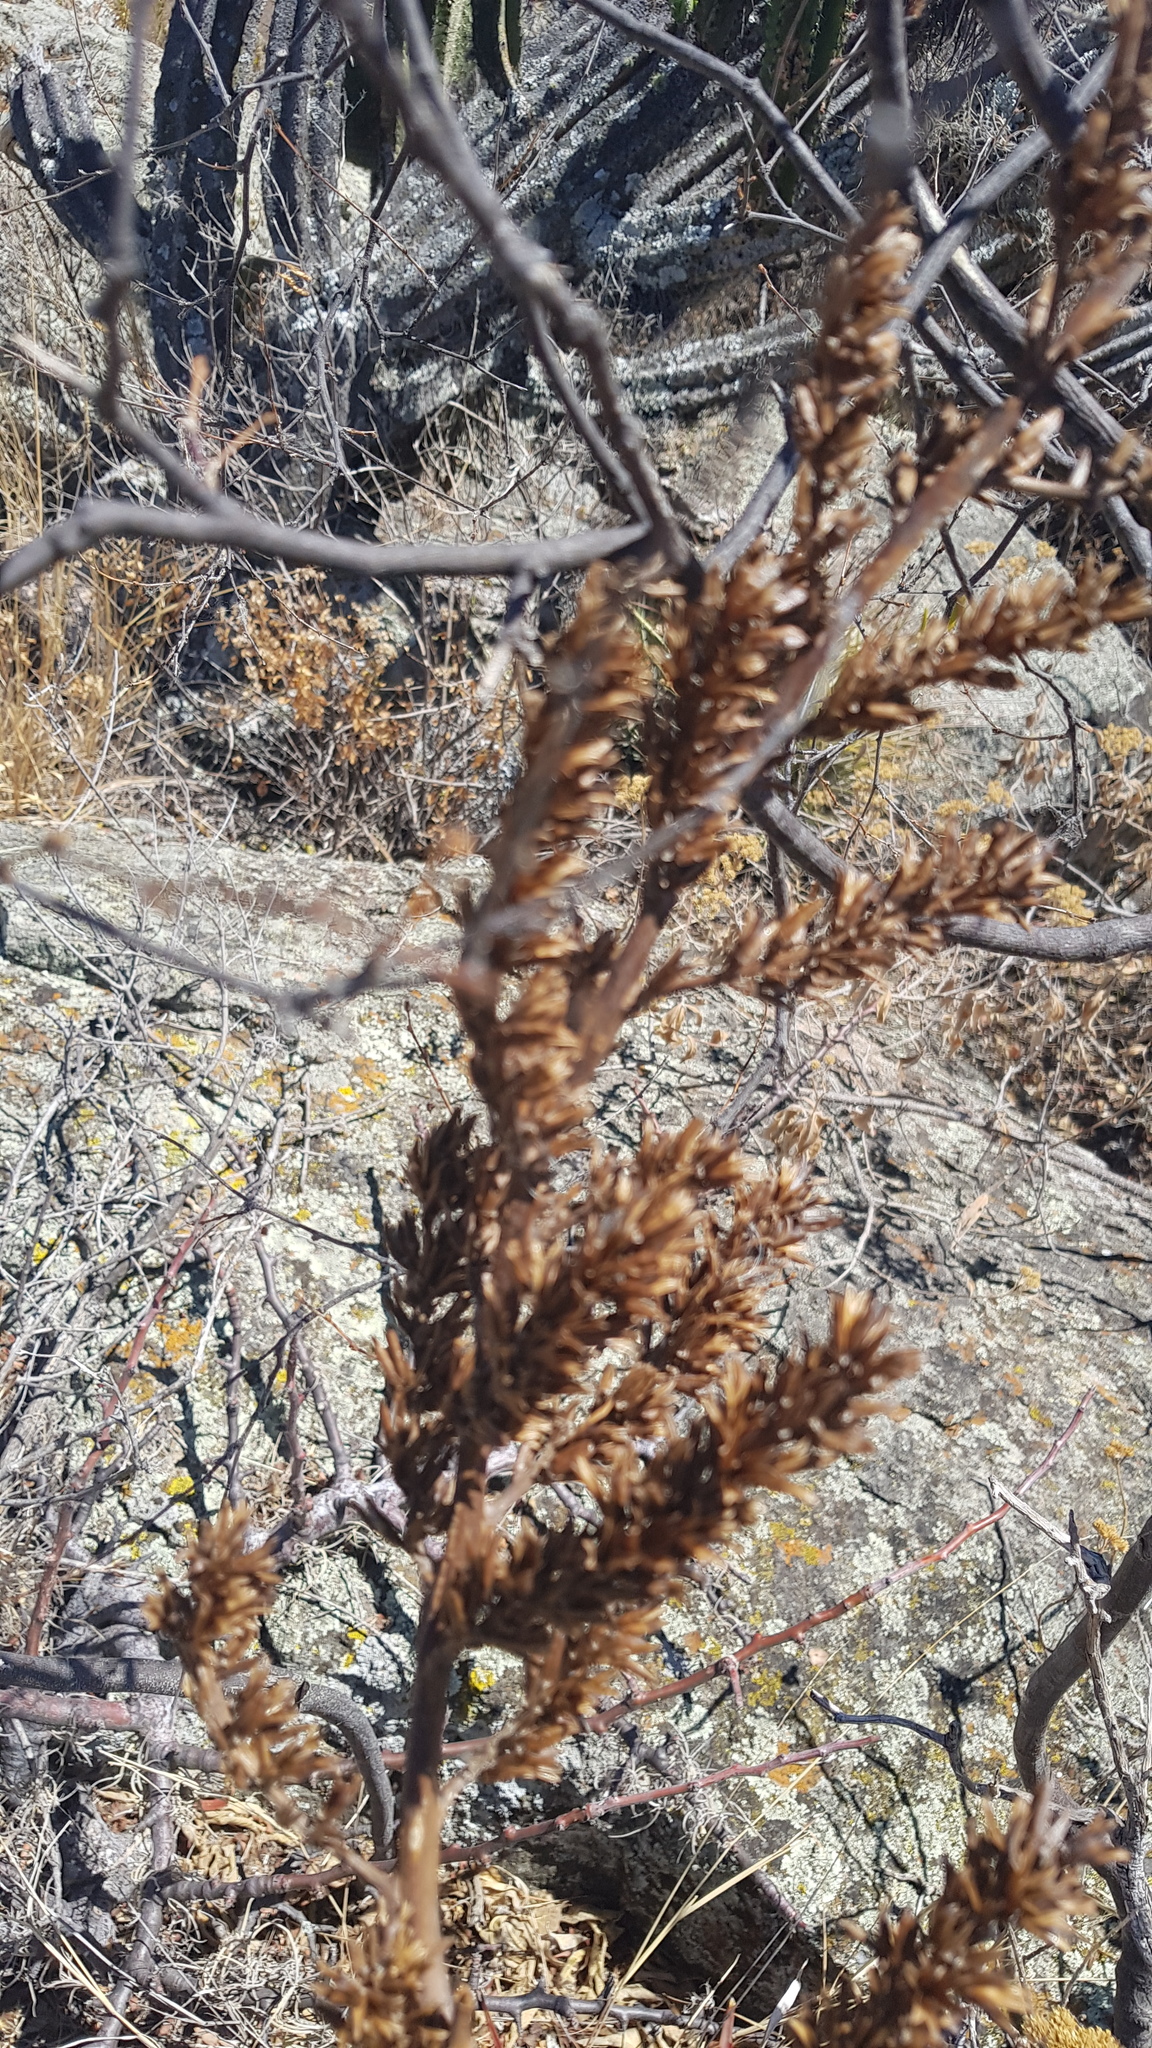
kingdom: Plantae
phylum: Tracheophyta
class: Liliopsida
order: Poales
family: Bromeliaceae
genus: Hechtia
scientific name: Hechtia pringlei
